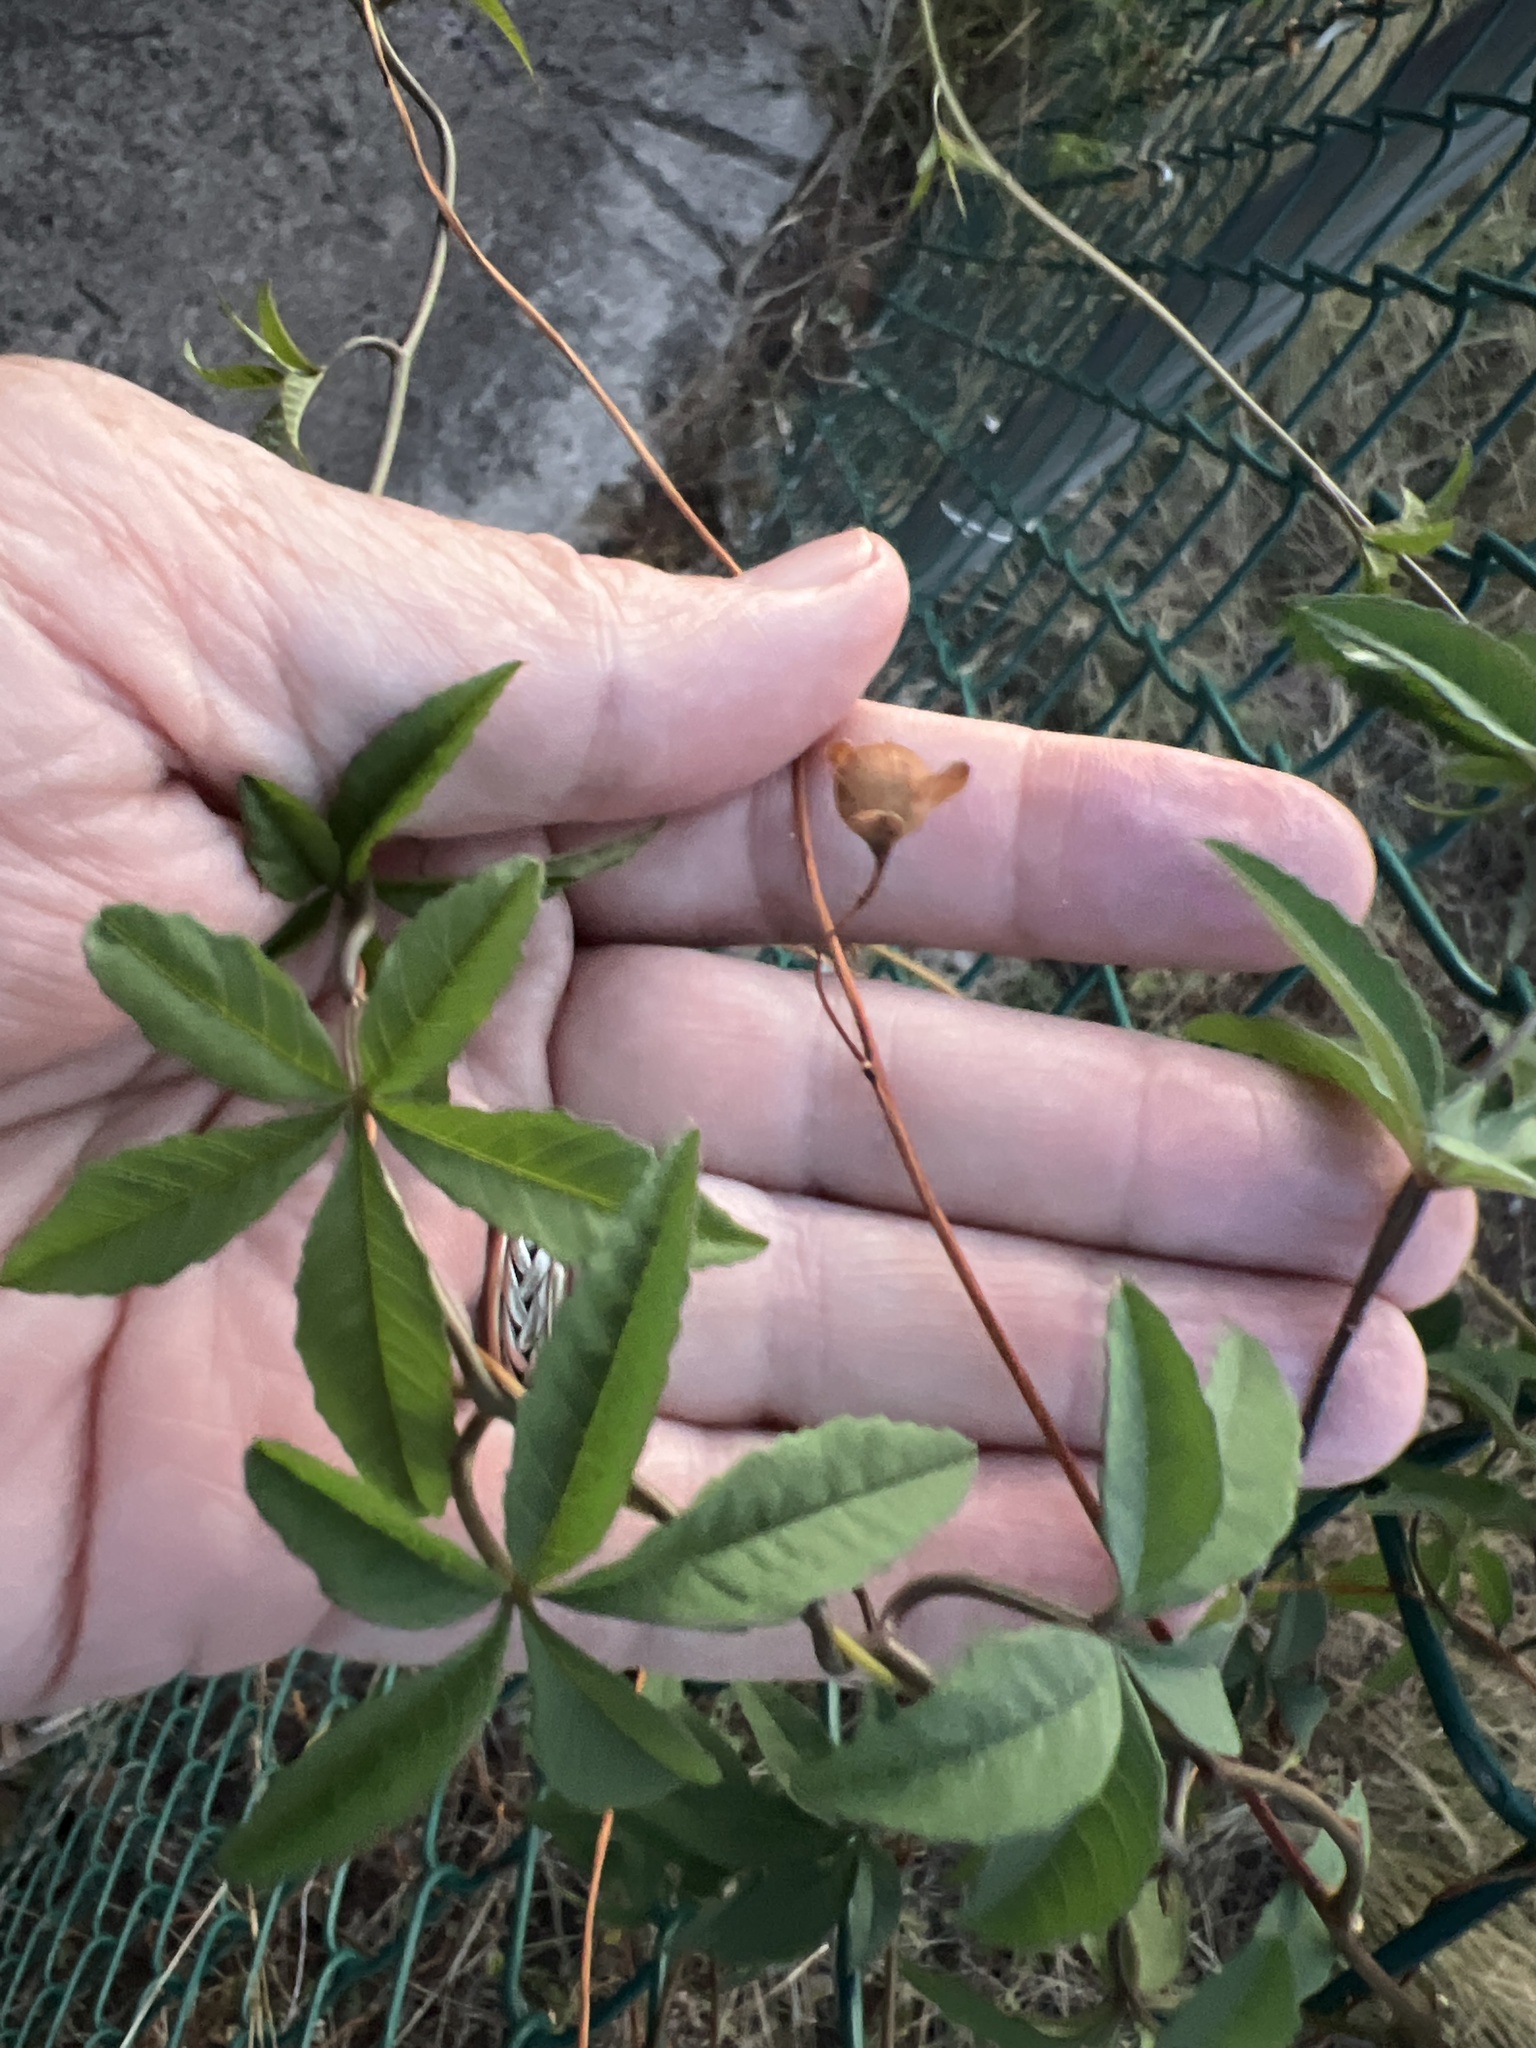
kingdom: Plantae
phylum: Tracheophyta
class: Magnoliopsida
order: Solanales
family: Convolvulaceae
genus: Distimake
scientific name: Distimake quinquefolius
